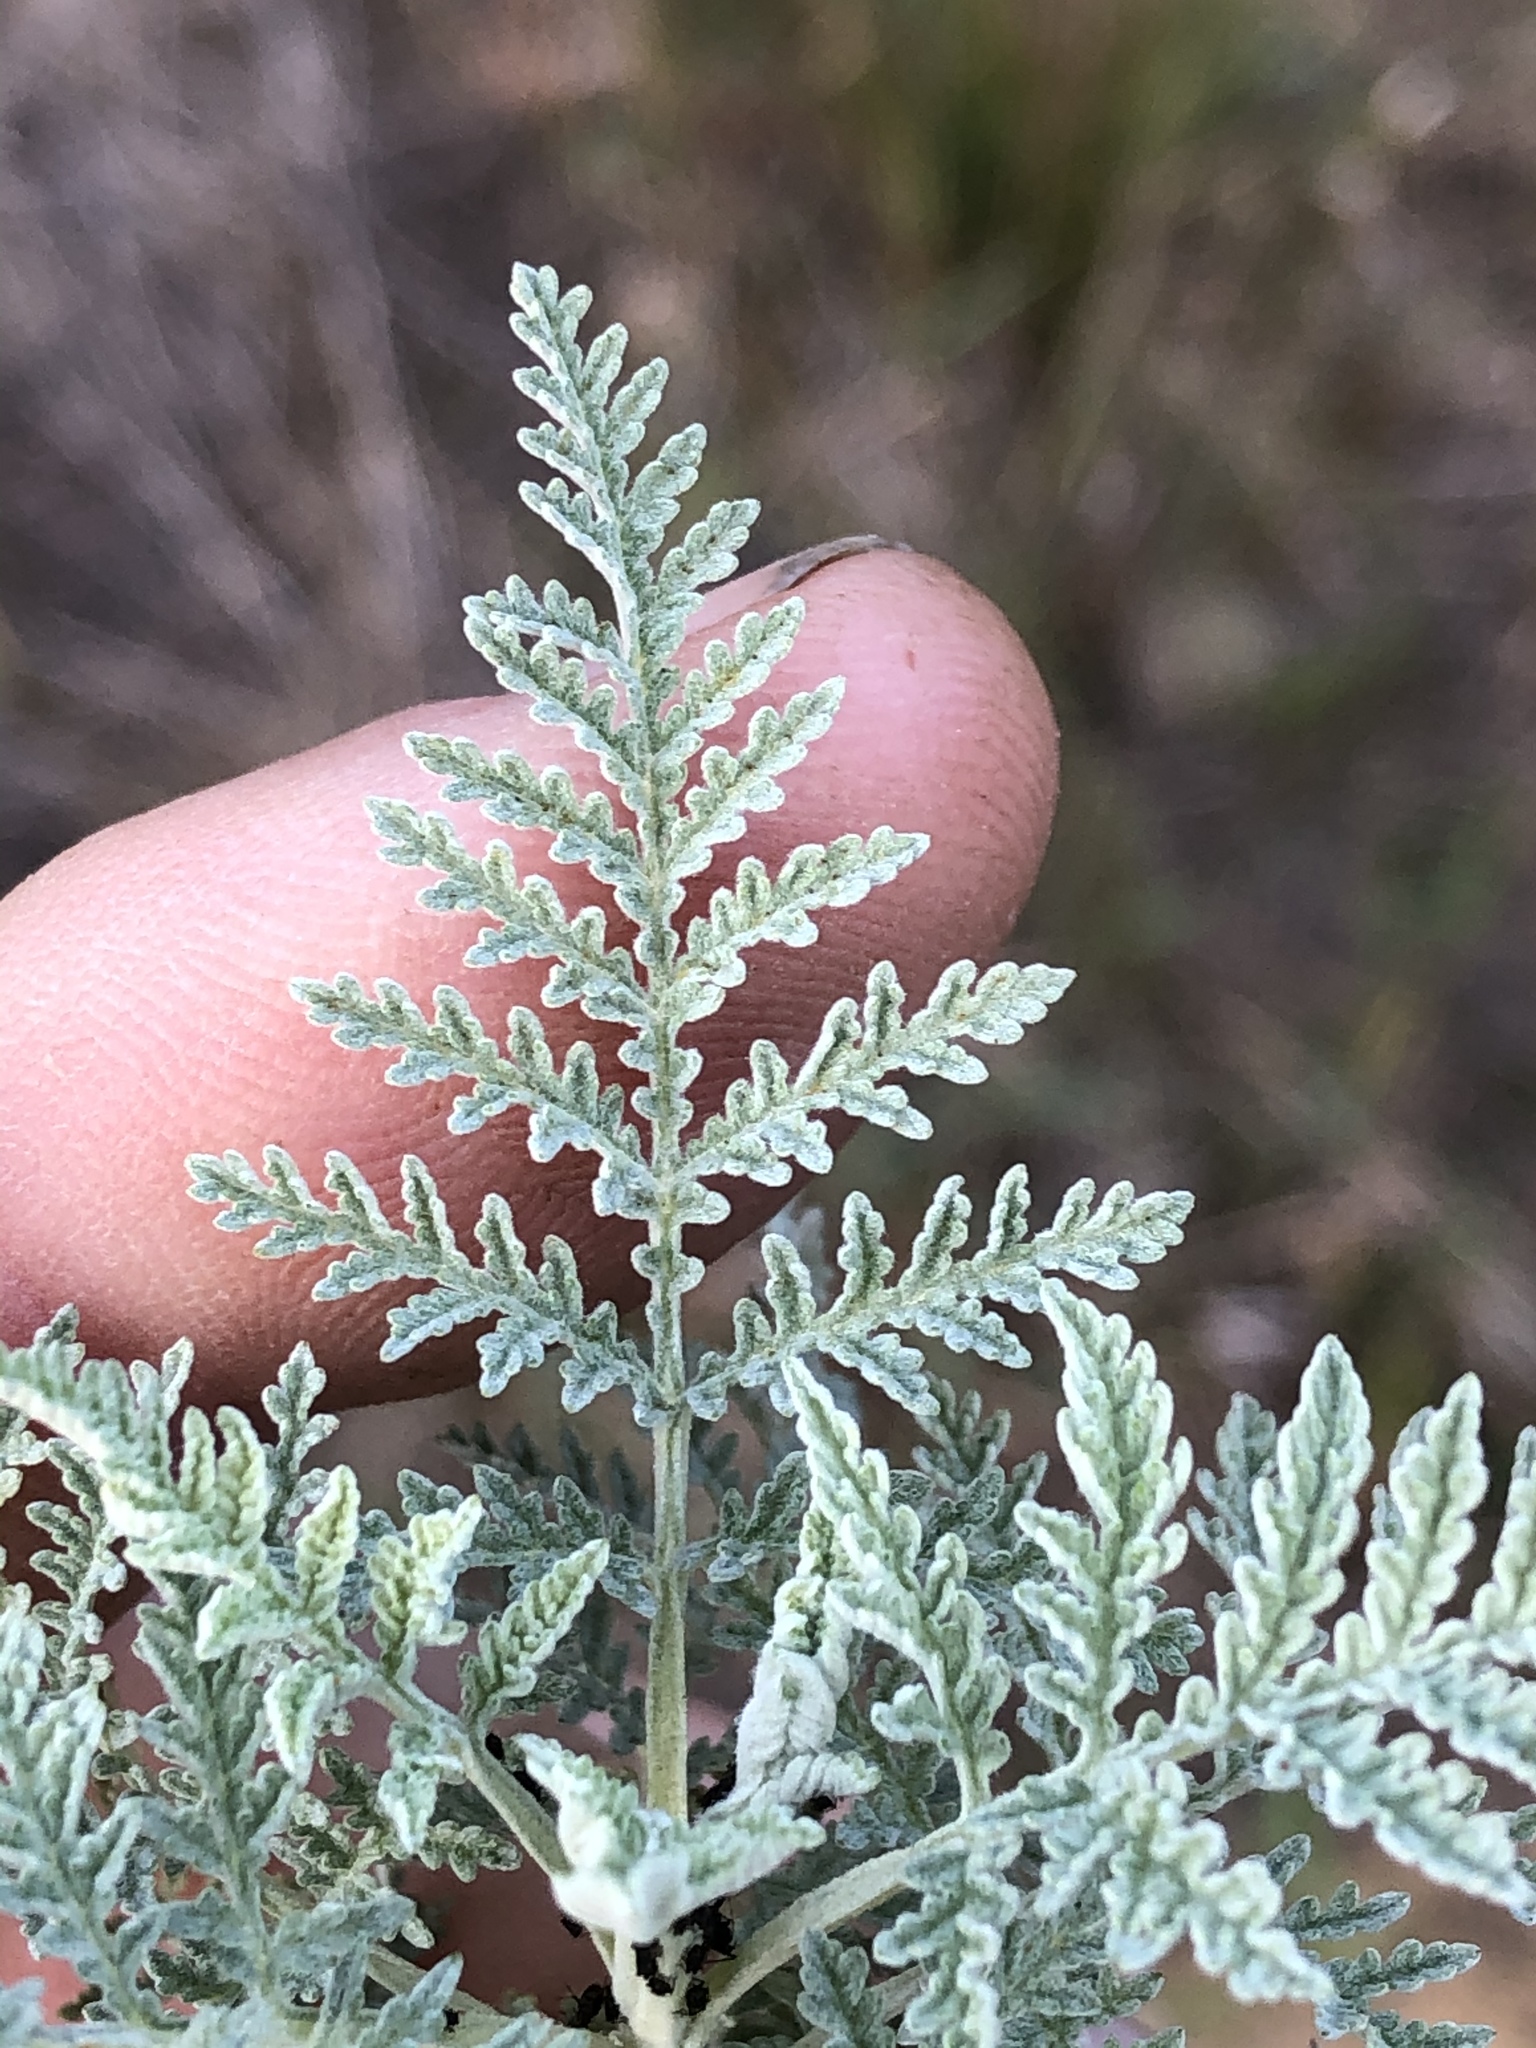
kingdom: Plantae
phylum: Tracheophyta
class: Magnoliopsida
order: Asterales
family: Asteraceae
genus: Artemisia
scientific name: Artemisia afra
